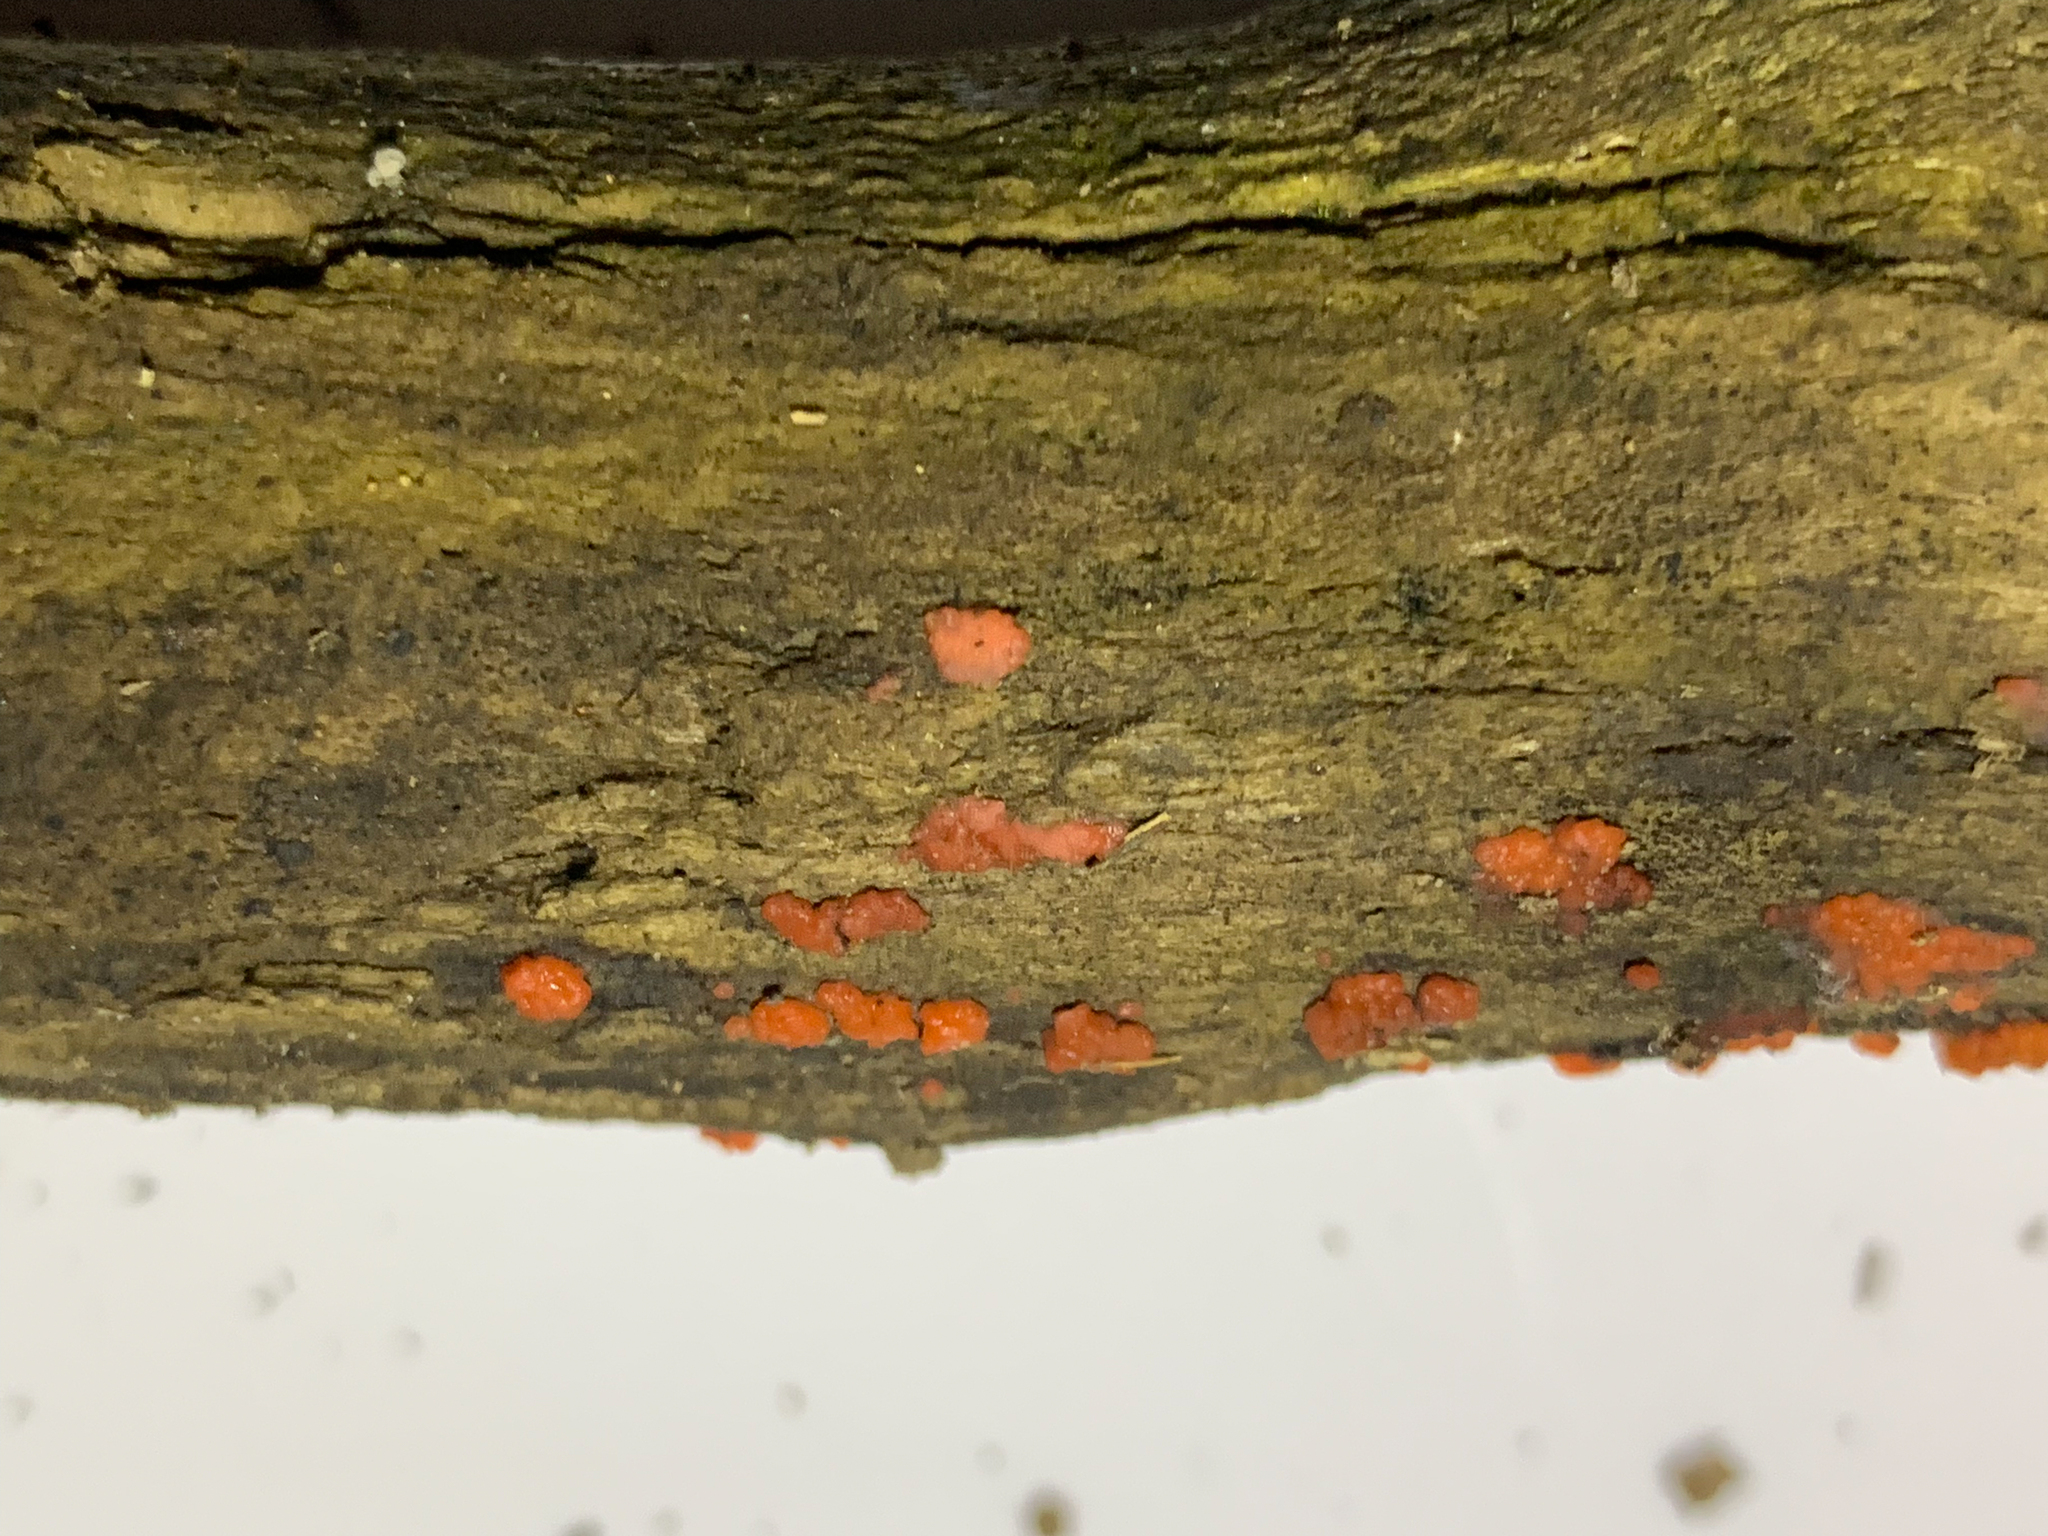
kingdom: Fungi
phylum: Basidiomycota
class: Agaricomycetes
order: Cantharellales
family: Tulasnellaceae
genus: Tulasnella
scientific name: Tulasnella aurantiaca
